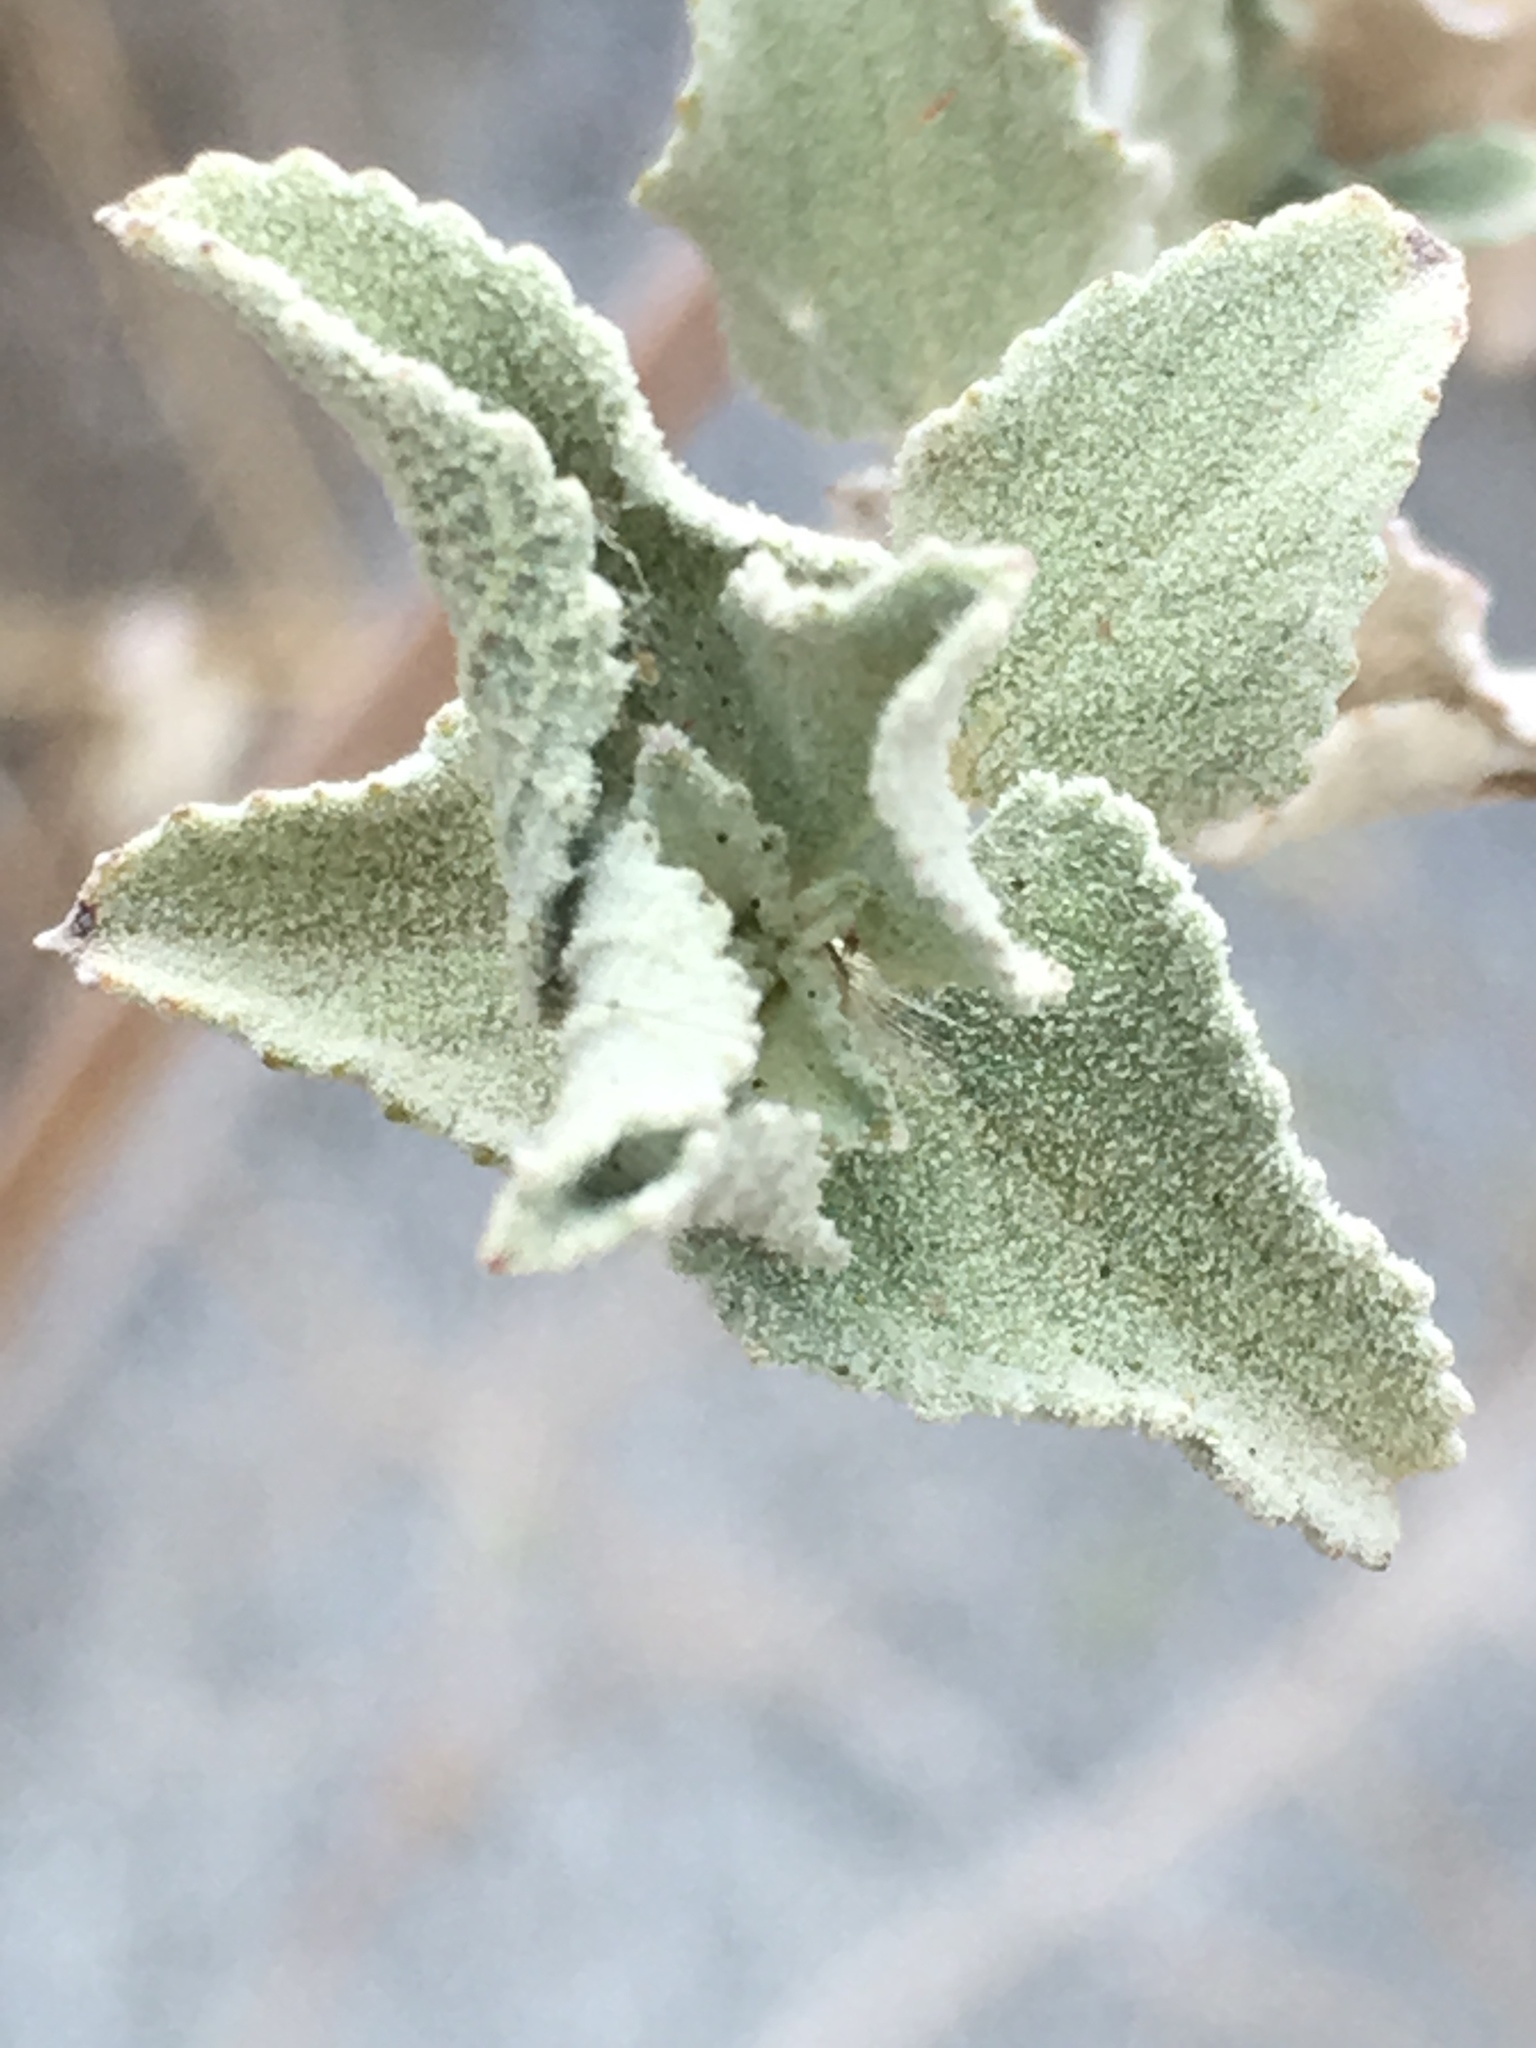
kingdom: Plantae
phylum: Tracheophyta
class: Magnoliopsida
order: Lamiales
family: Lamiaceae
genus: Condea
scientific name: Condea emoryi
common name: Chia
